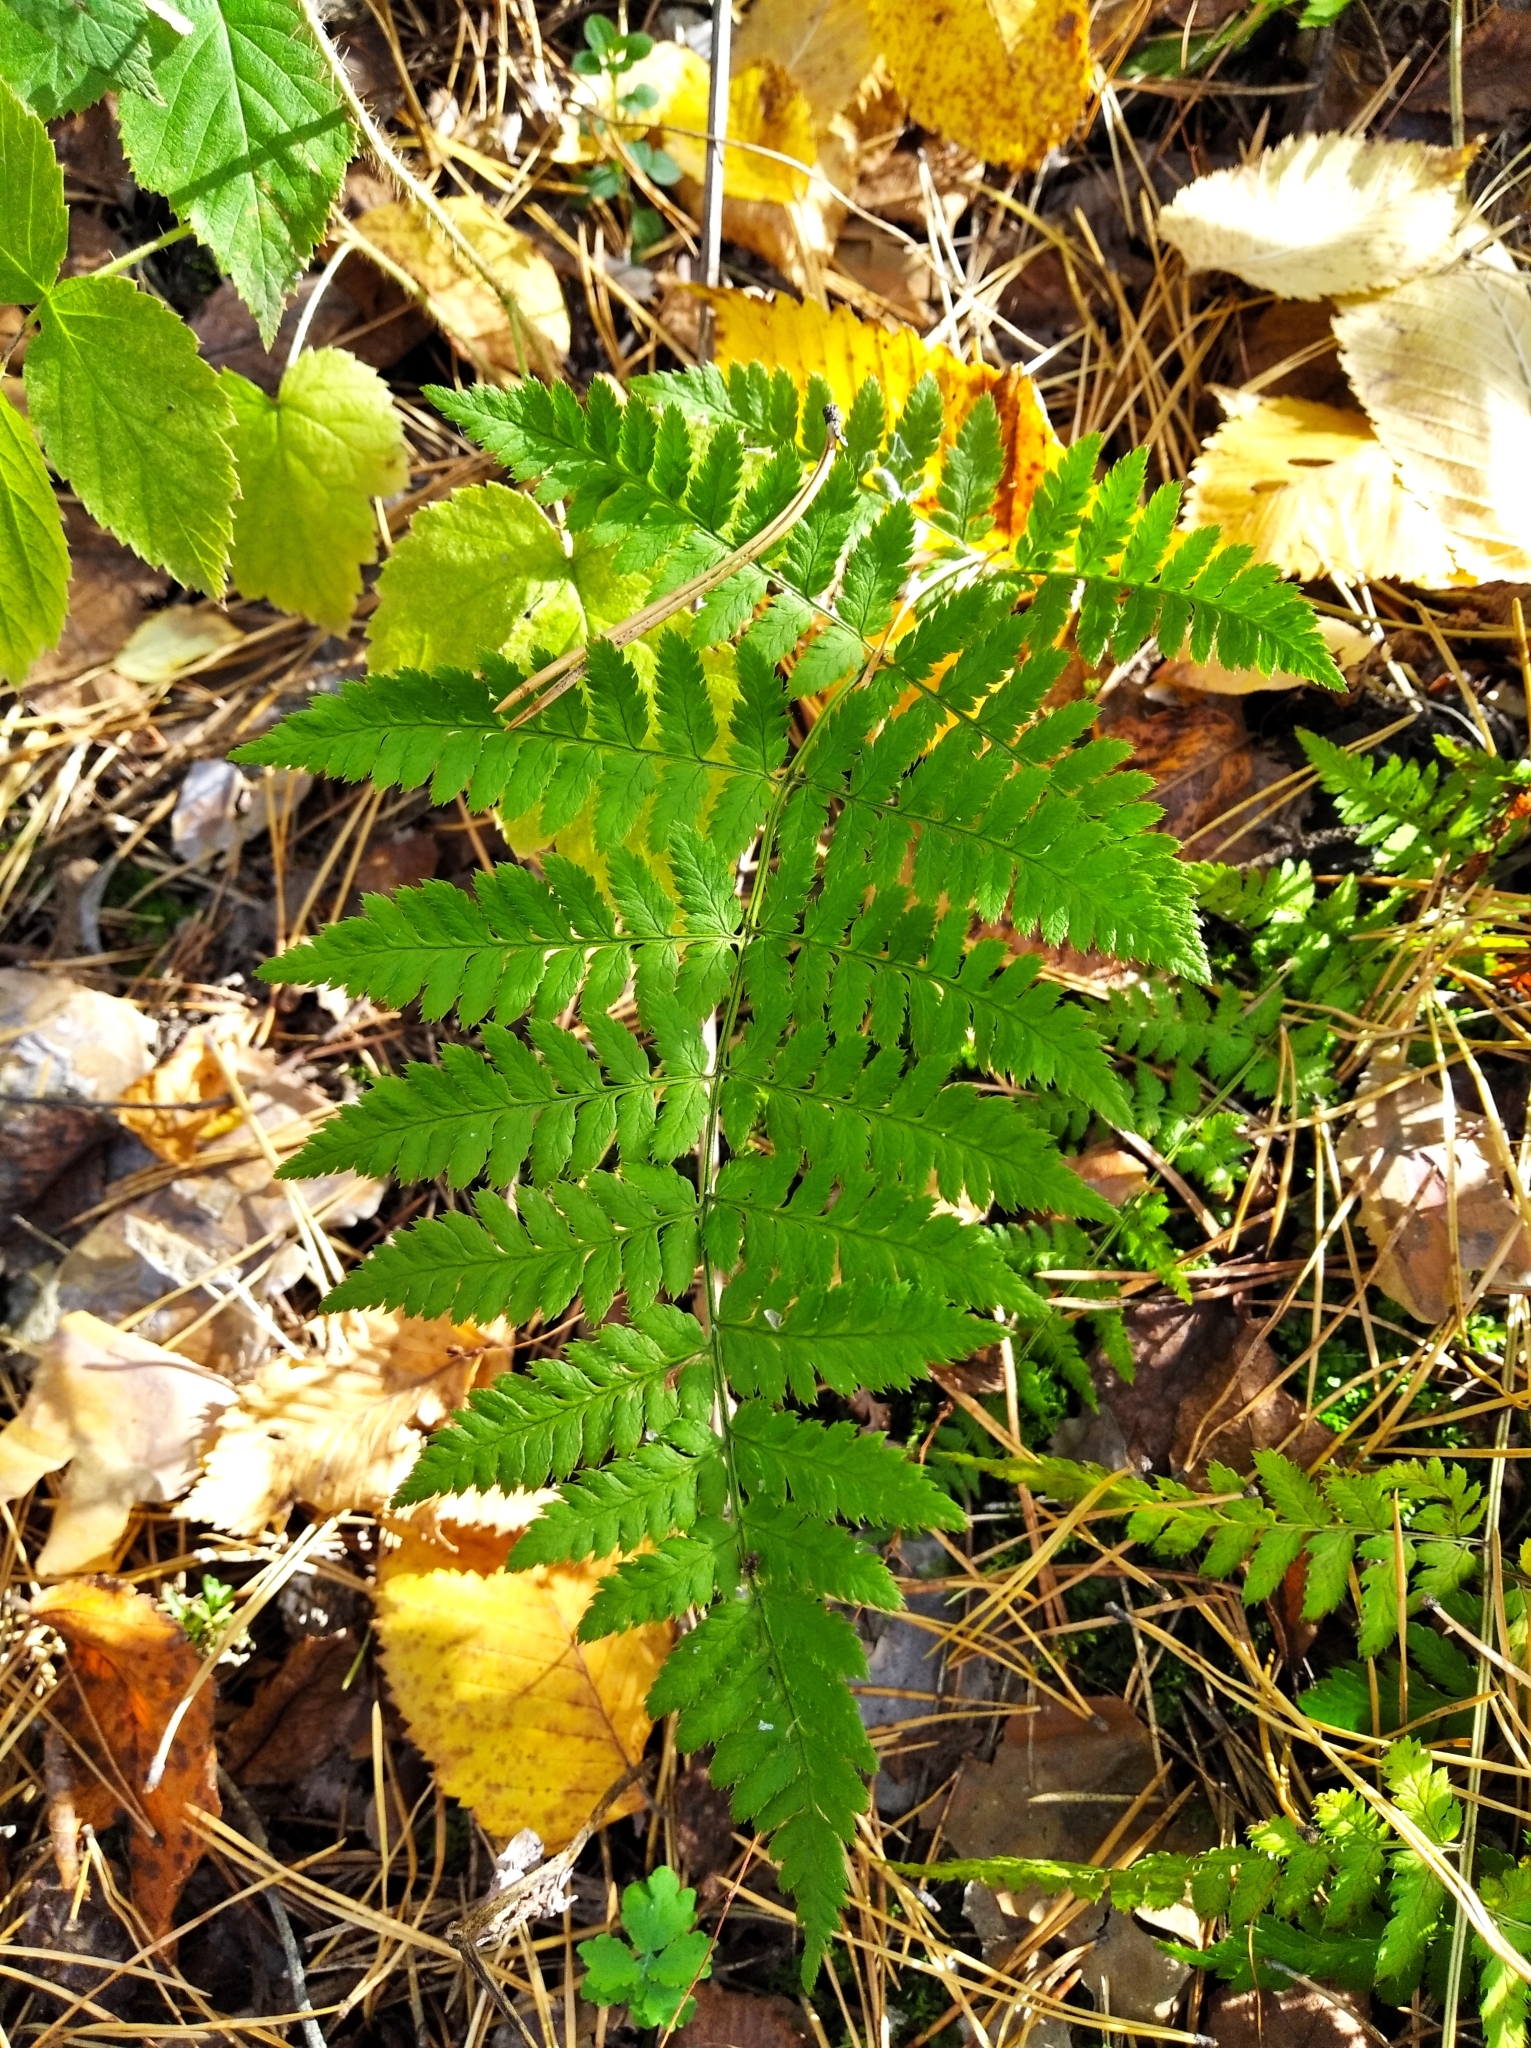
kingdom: Plantae
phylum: Tracheophyta
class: Polypodiopsida
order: Polypodiales
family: Dryopteridaceae
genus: Dryopteris
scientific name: Dryopteris carthusiana
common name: Narrow buckler-fern
